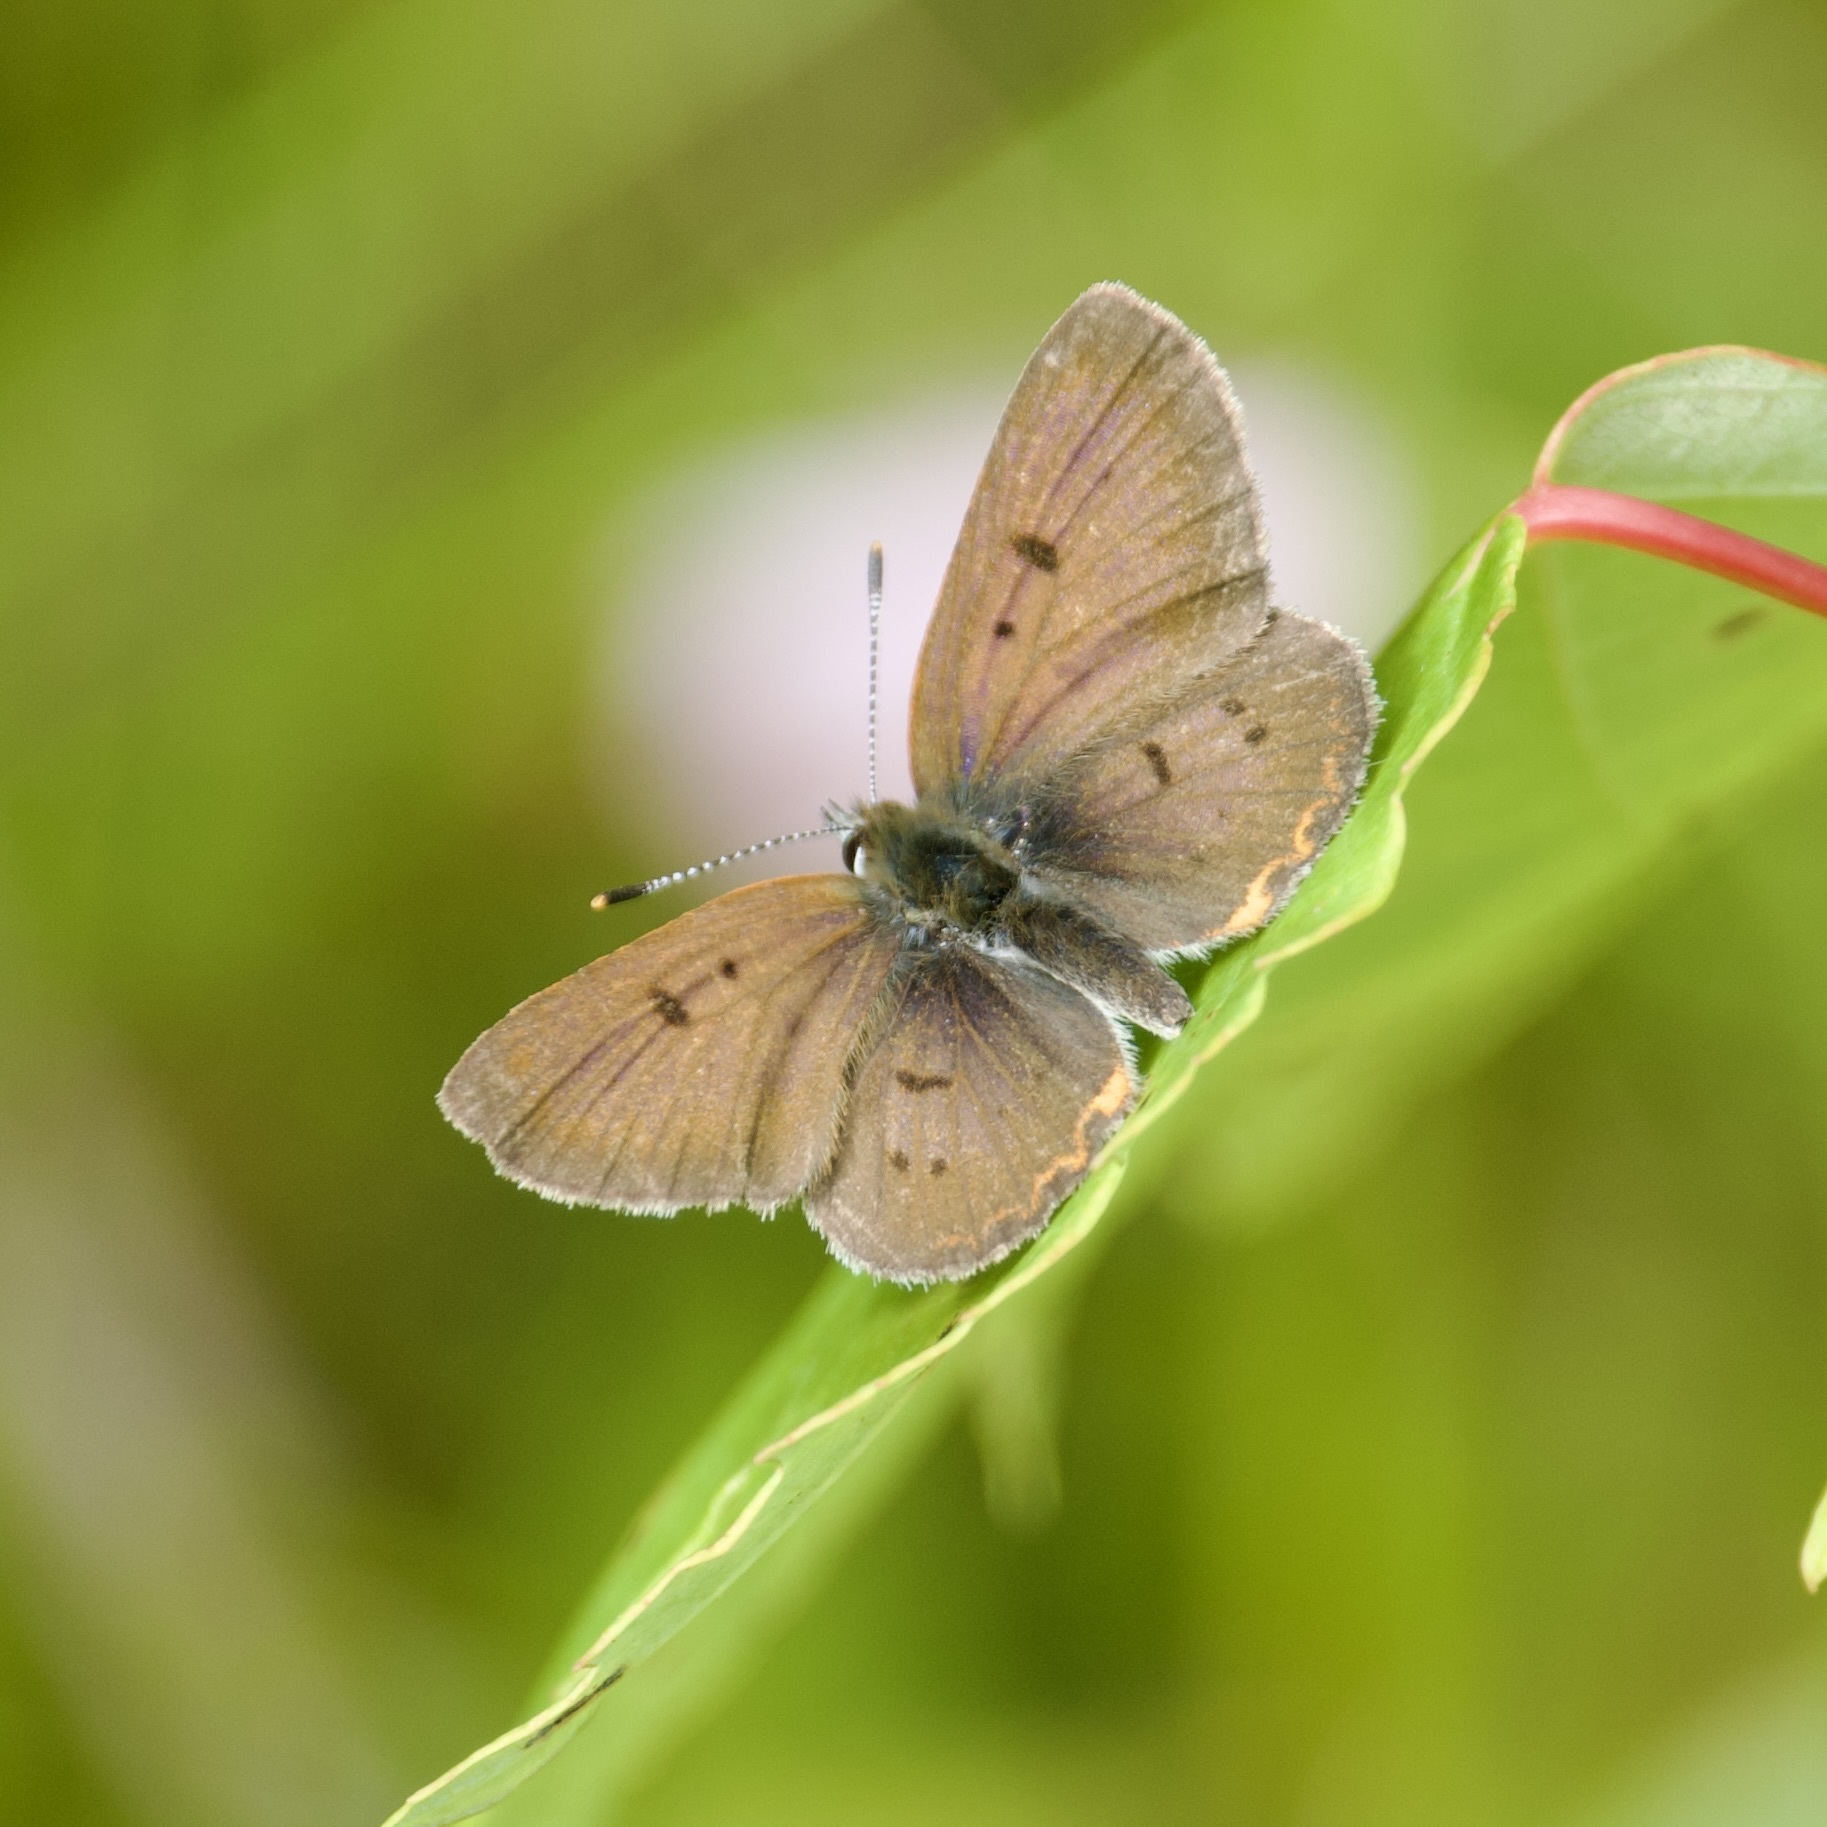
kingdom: Animalia
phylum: Arthropoda
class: Insecta
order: Lepidoptera
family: Lycaenidae
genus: Tharsalea
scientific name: Tharsalea epixanthe
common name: Bog copper
